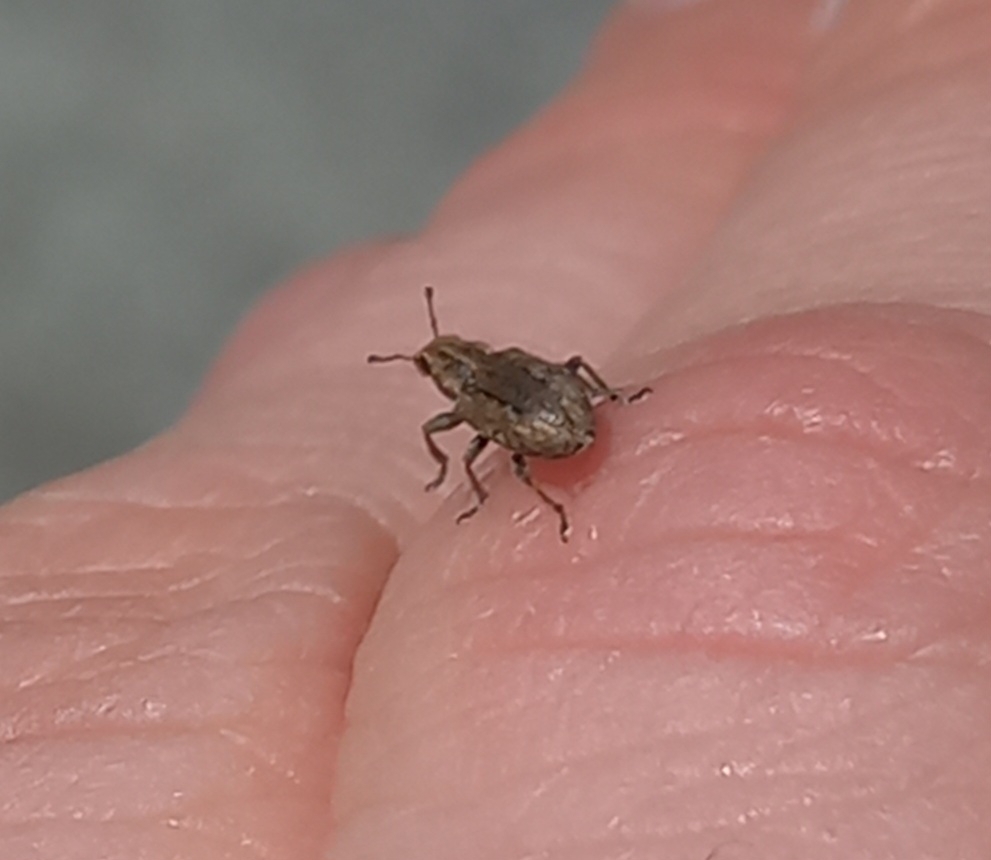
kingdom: Animalia
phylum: Arthropoda
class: Insecta
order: Coleoptera
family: Curculionidae
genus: Sitona
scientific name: Sitona obsoletus
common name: Weevil
